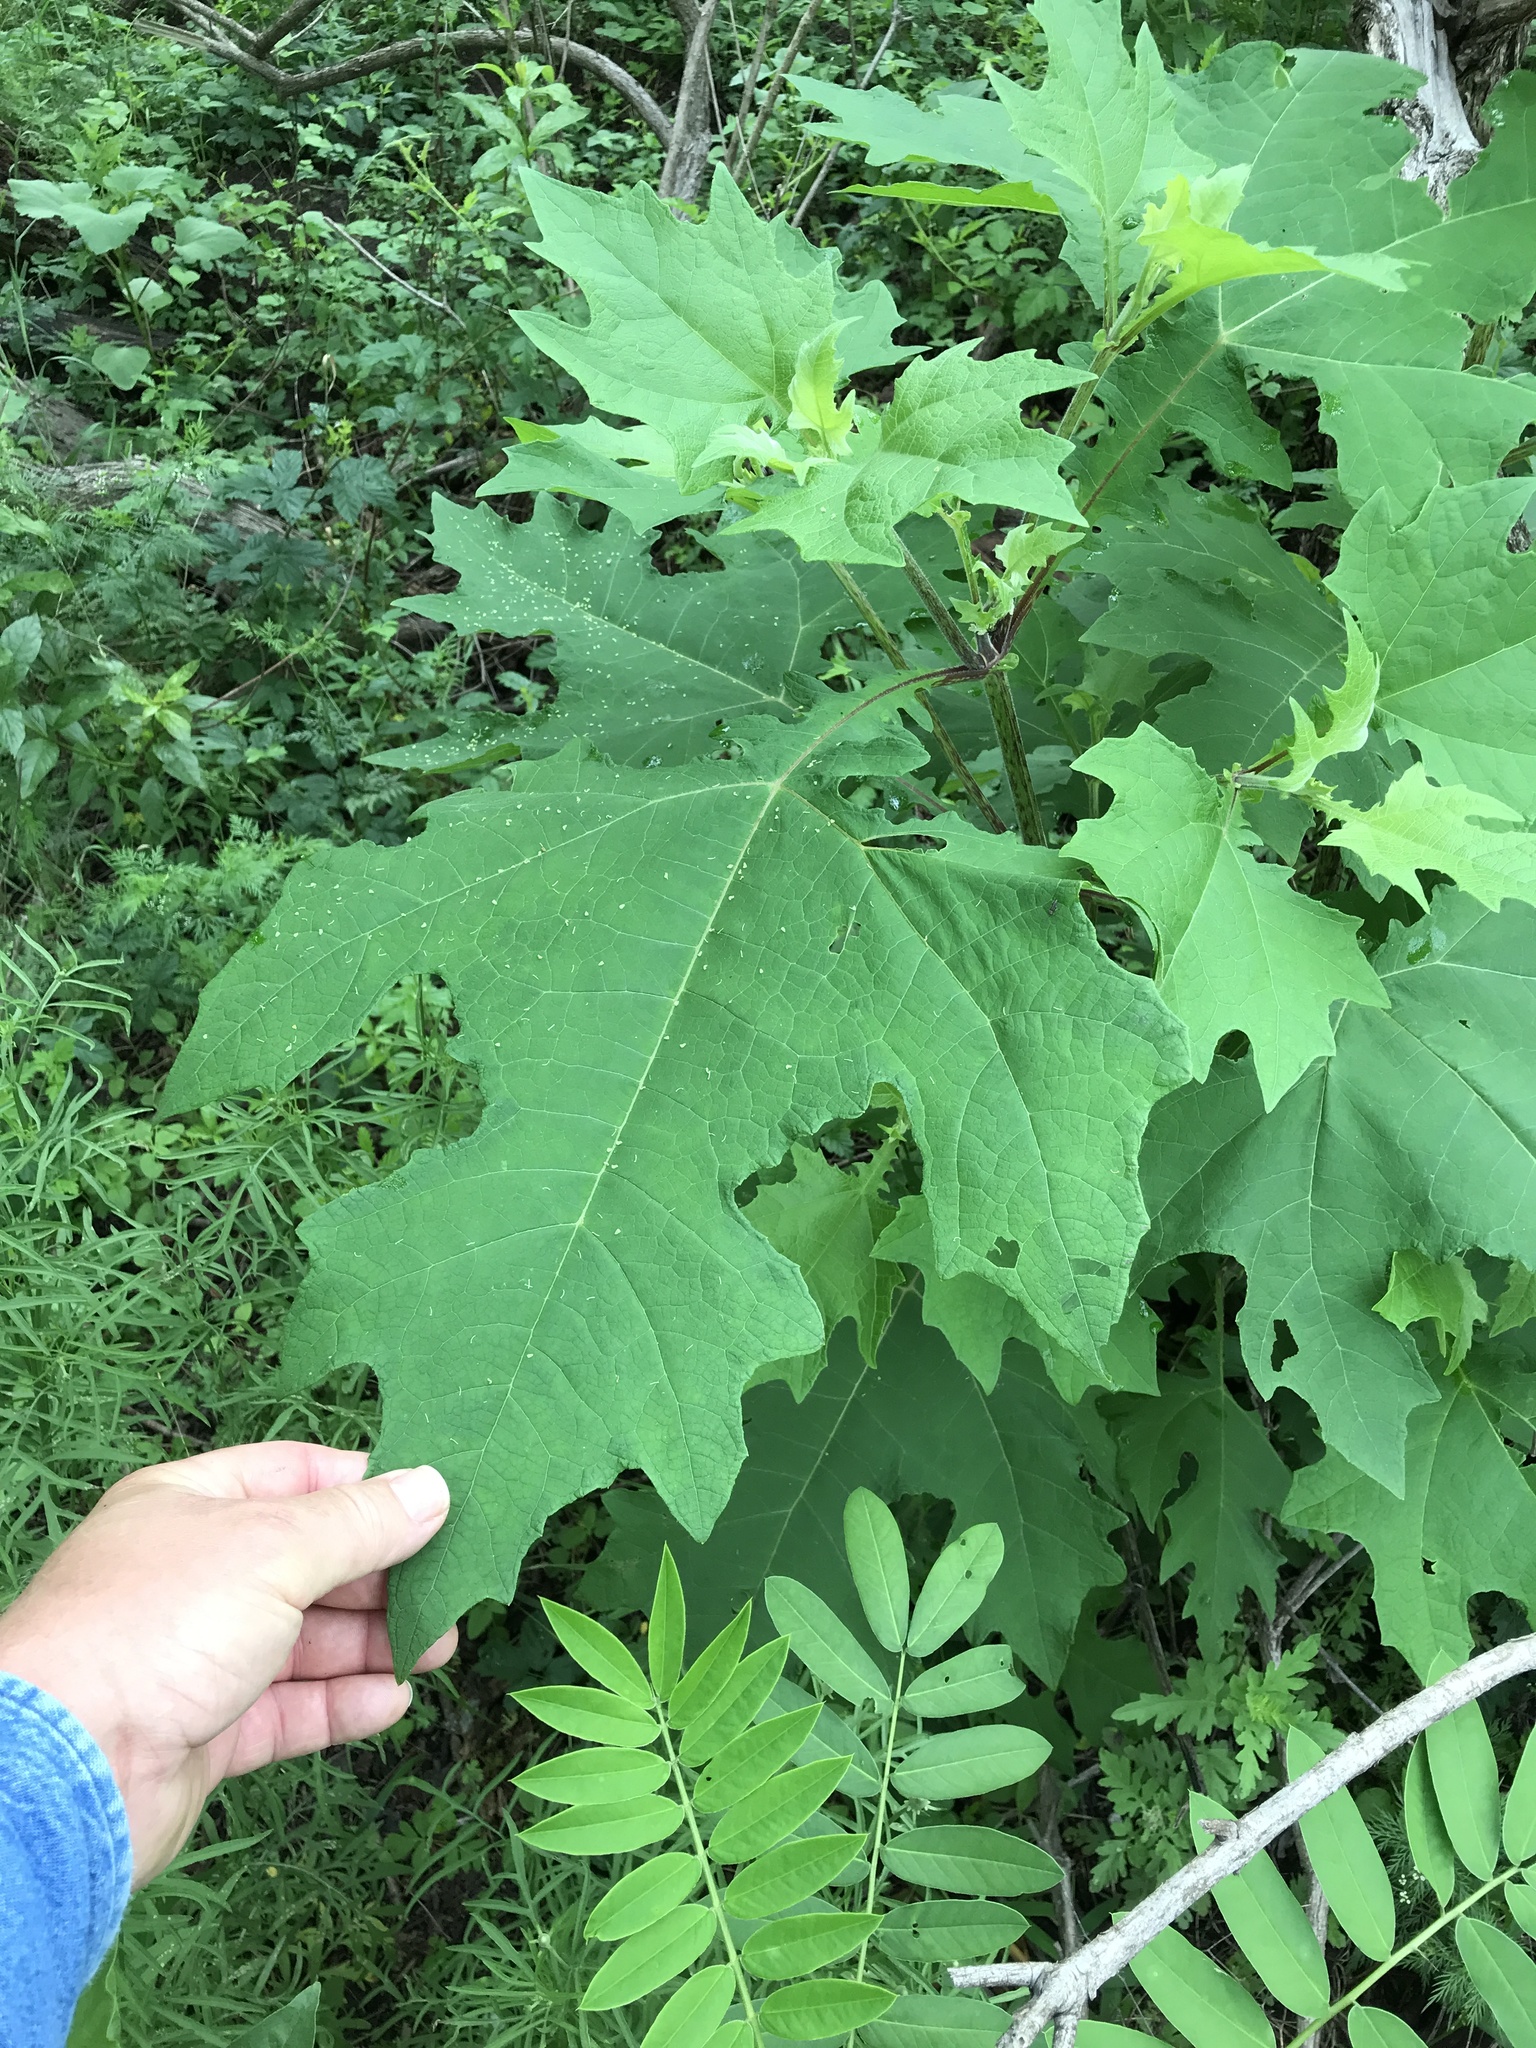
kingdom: Plantae
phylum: Tracheophyta
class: Magnoliopsida
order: Asterales
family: Asteraceae
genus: Smallanthus
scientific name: Smallanthus uvedalia
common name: Bear's-foot
